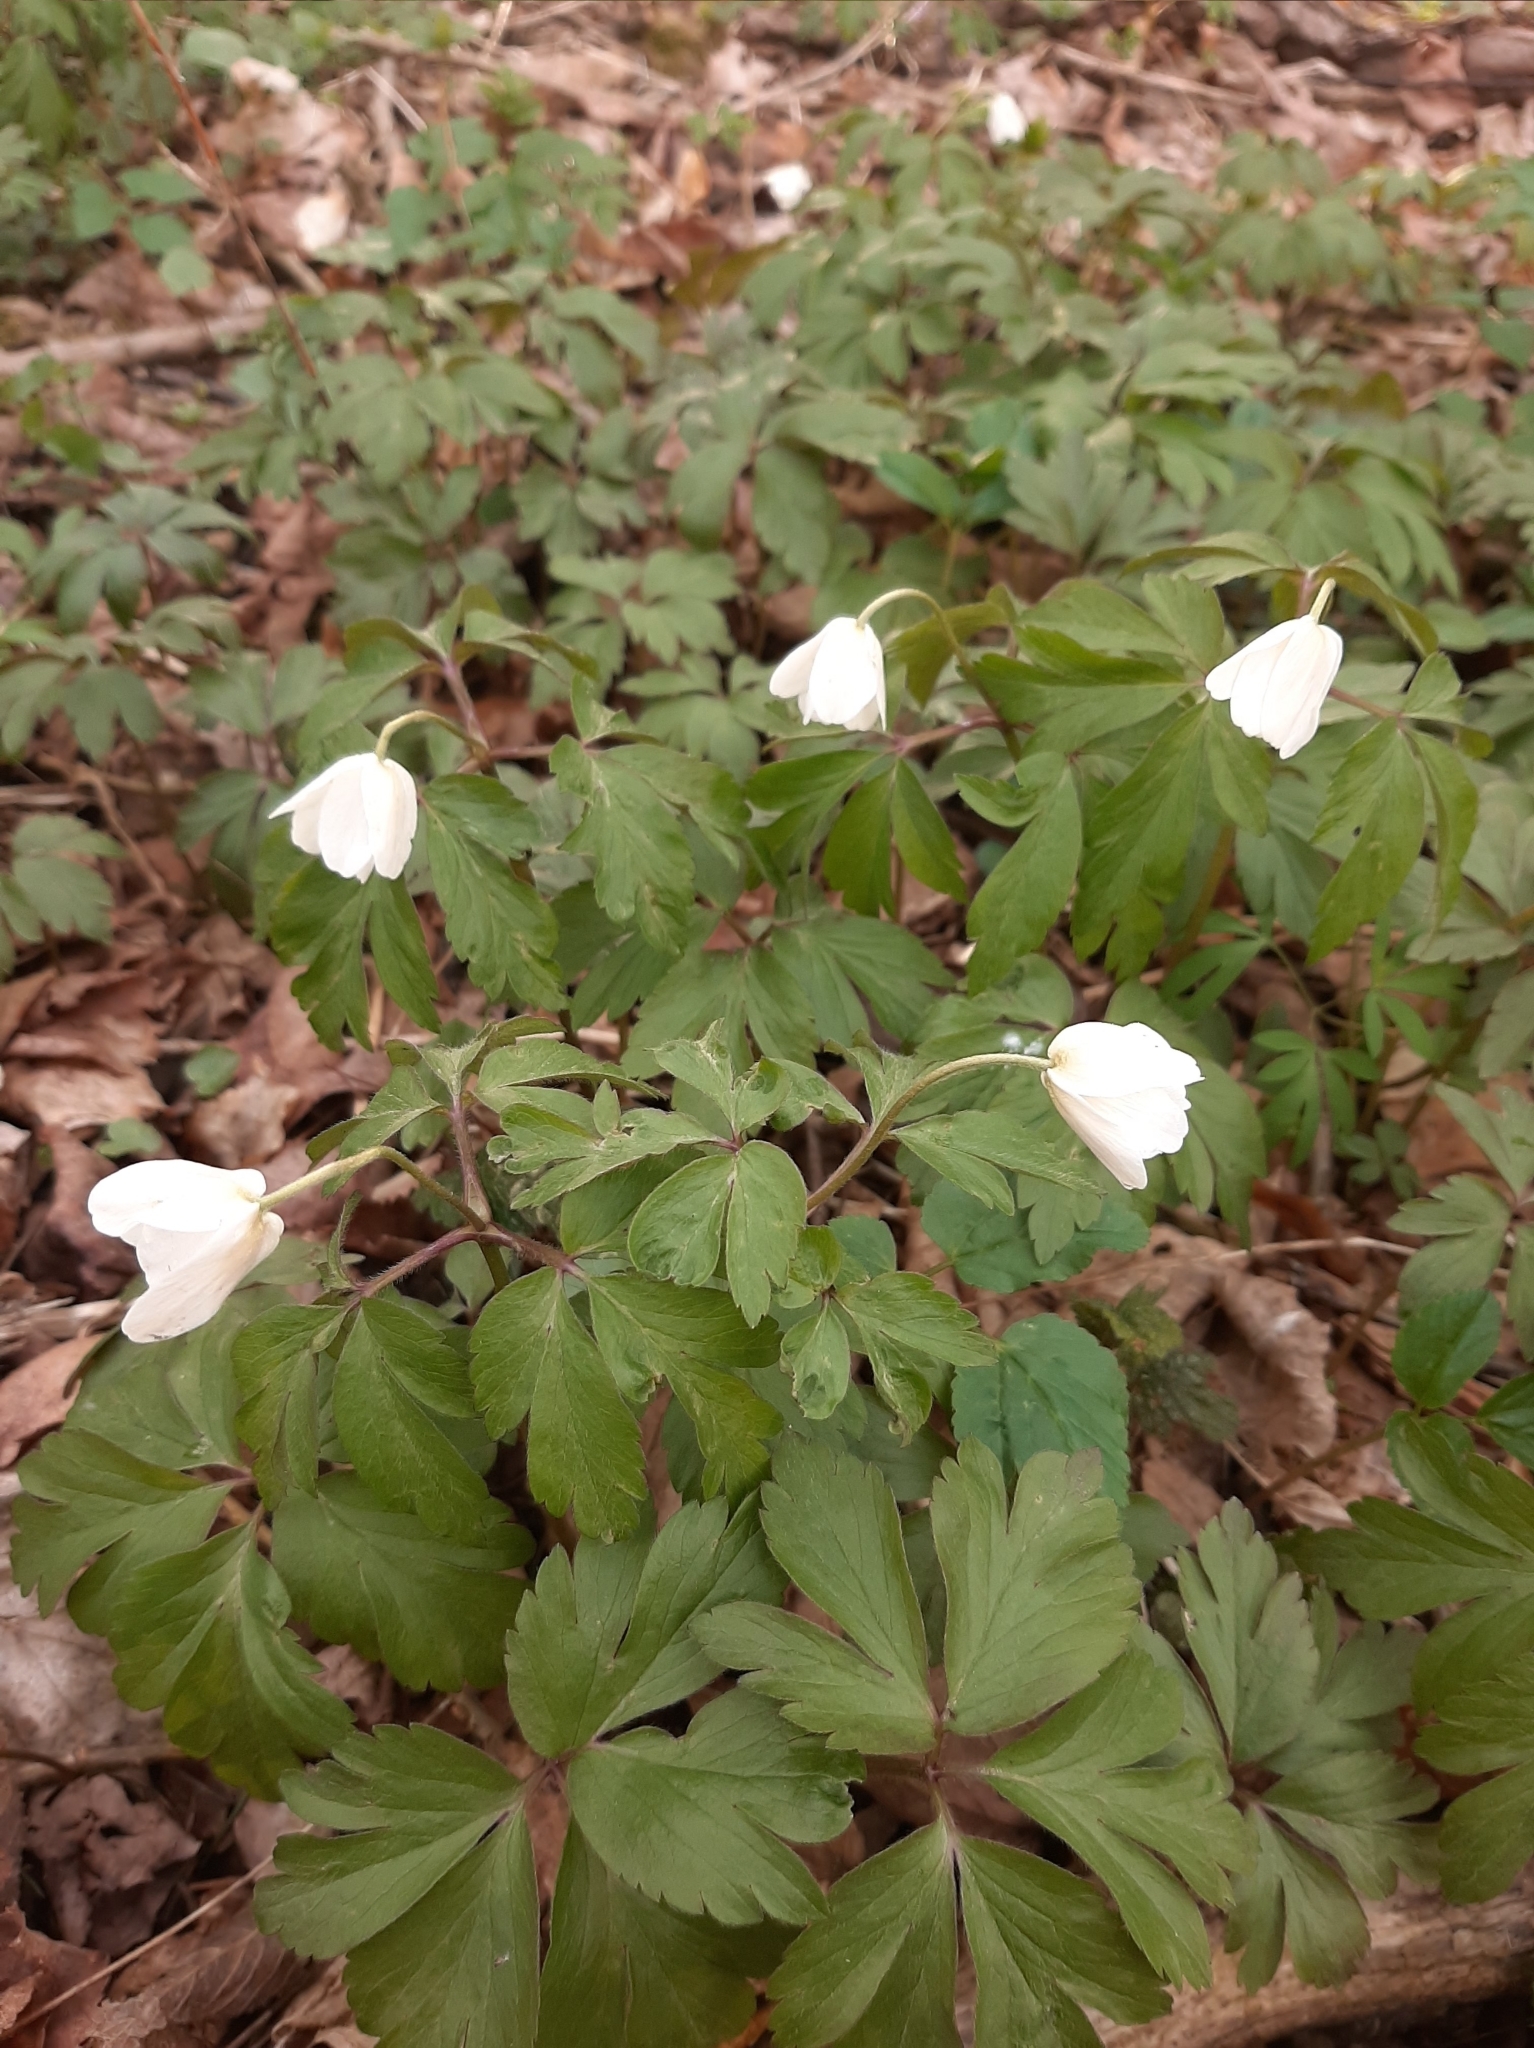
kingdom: Plantae
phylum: Tracheophyta
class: Magnoliopsida
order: Ranunculales
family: Ranunculaceae
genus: Anemone
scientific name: Anemone nemorosa
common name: Wood anemone
